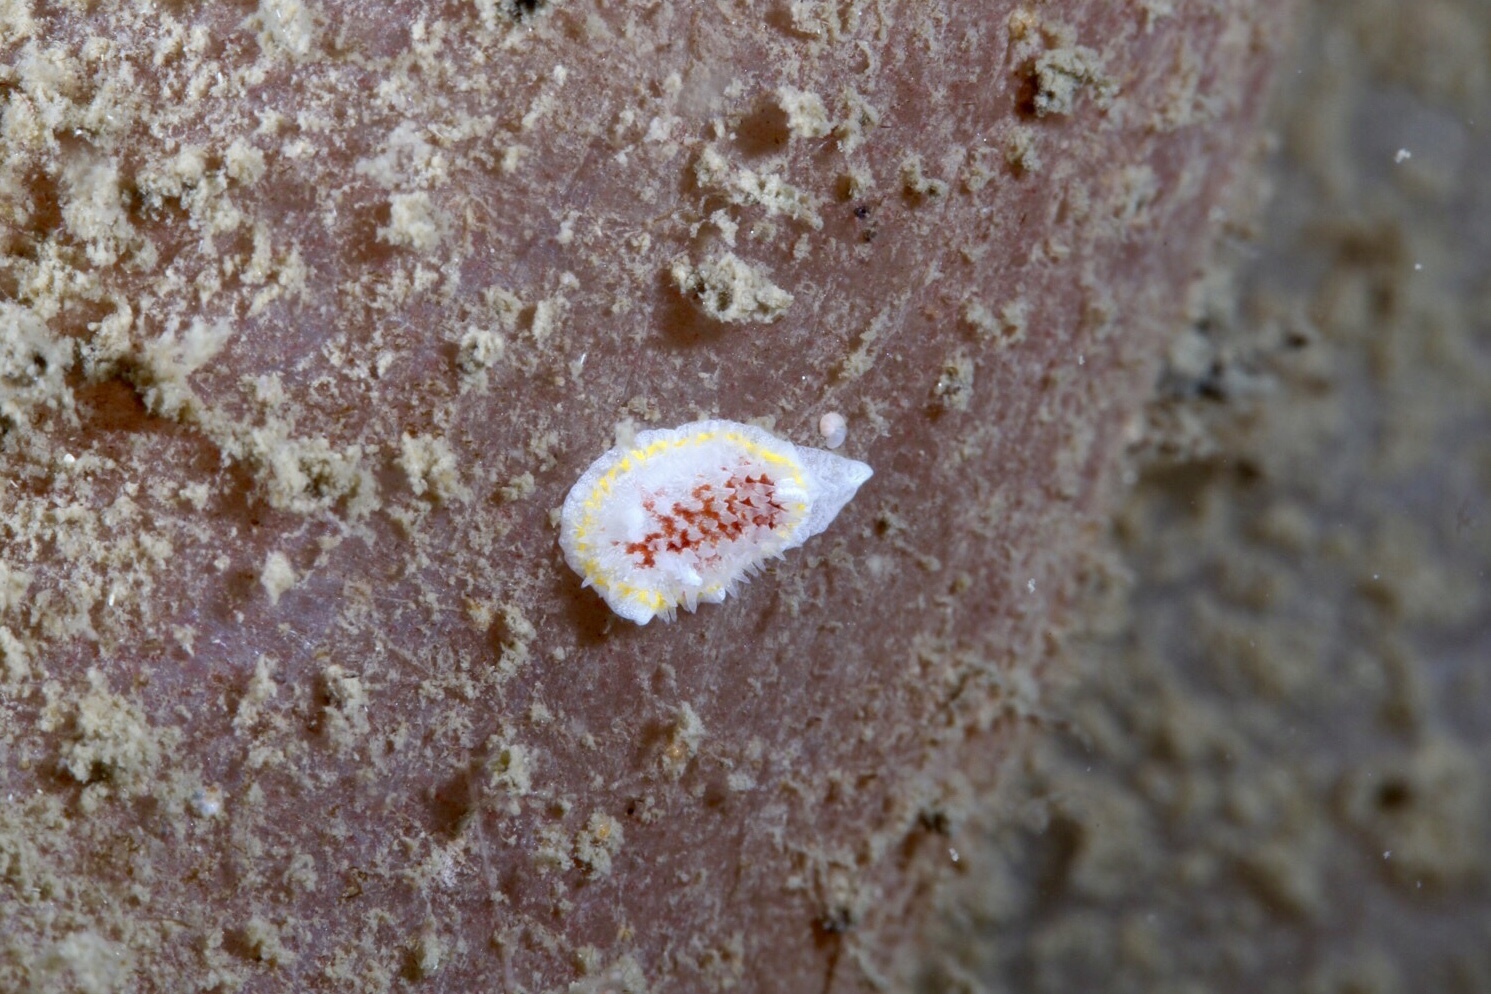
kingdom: Animalia
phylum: Mollusca
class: Gastropoda
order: Nudibranchia
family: Calycidorididae
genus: Diaphorodoris
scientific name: Diaphorodoris luteocincta
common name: Fried egg nudibranch
